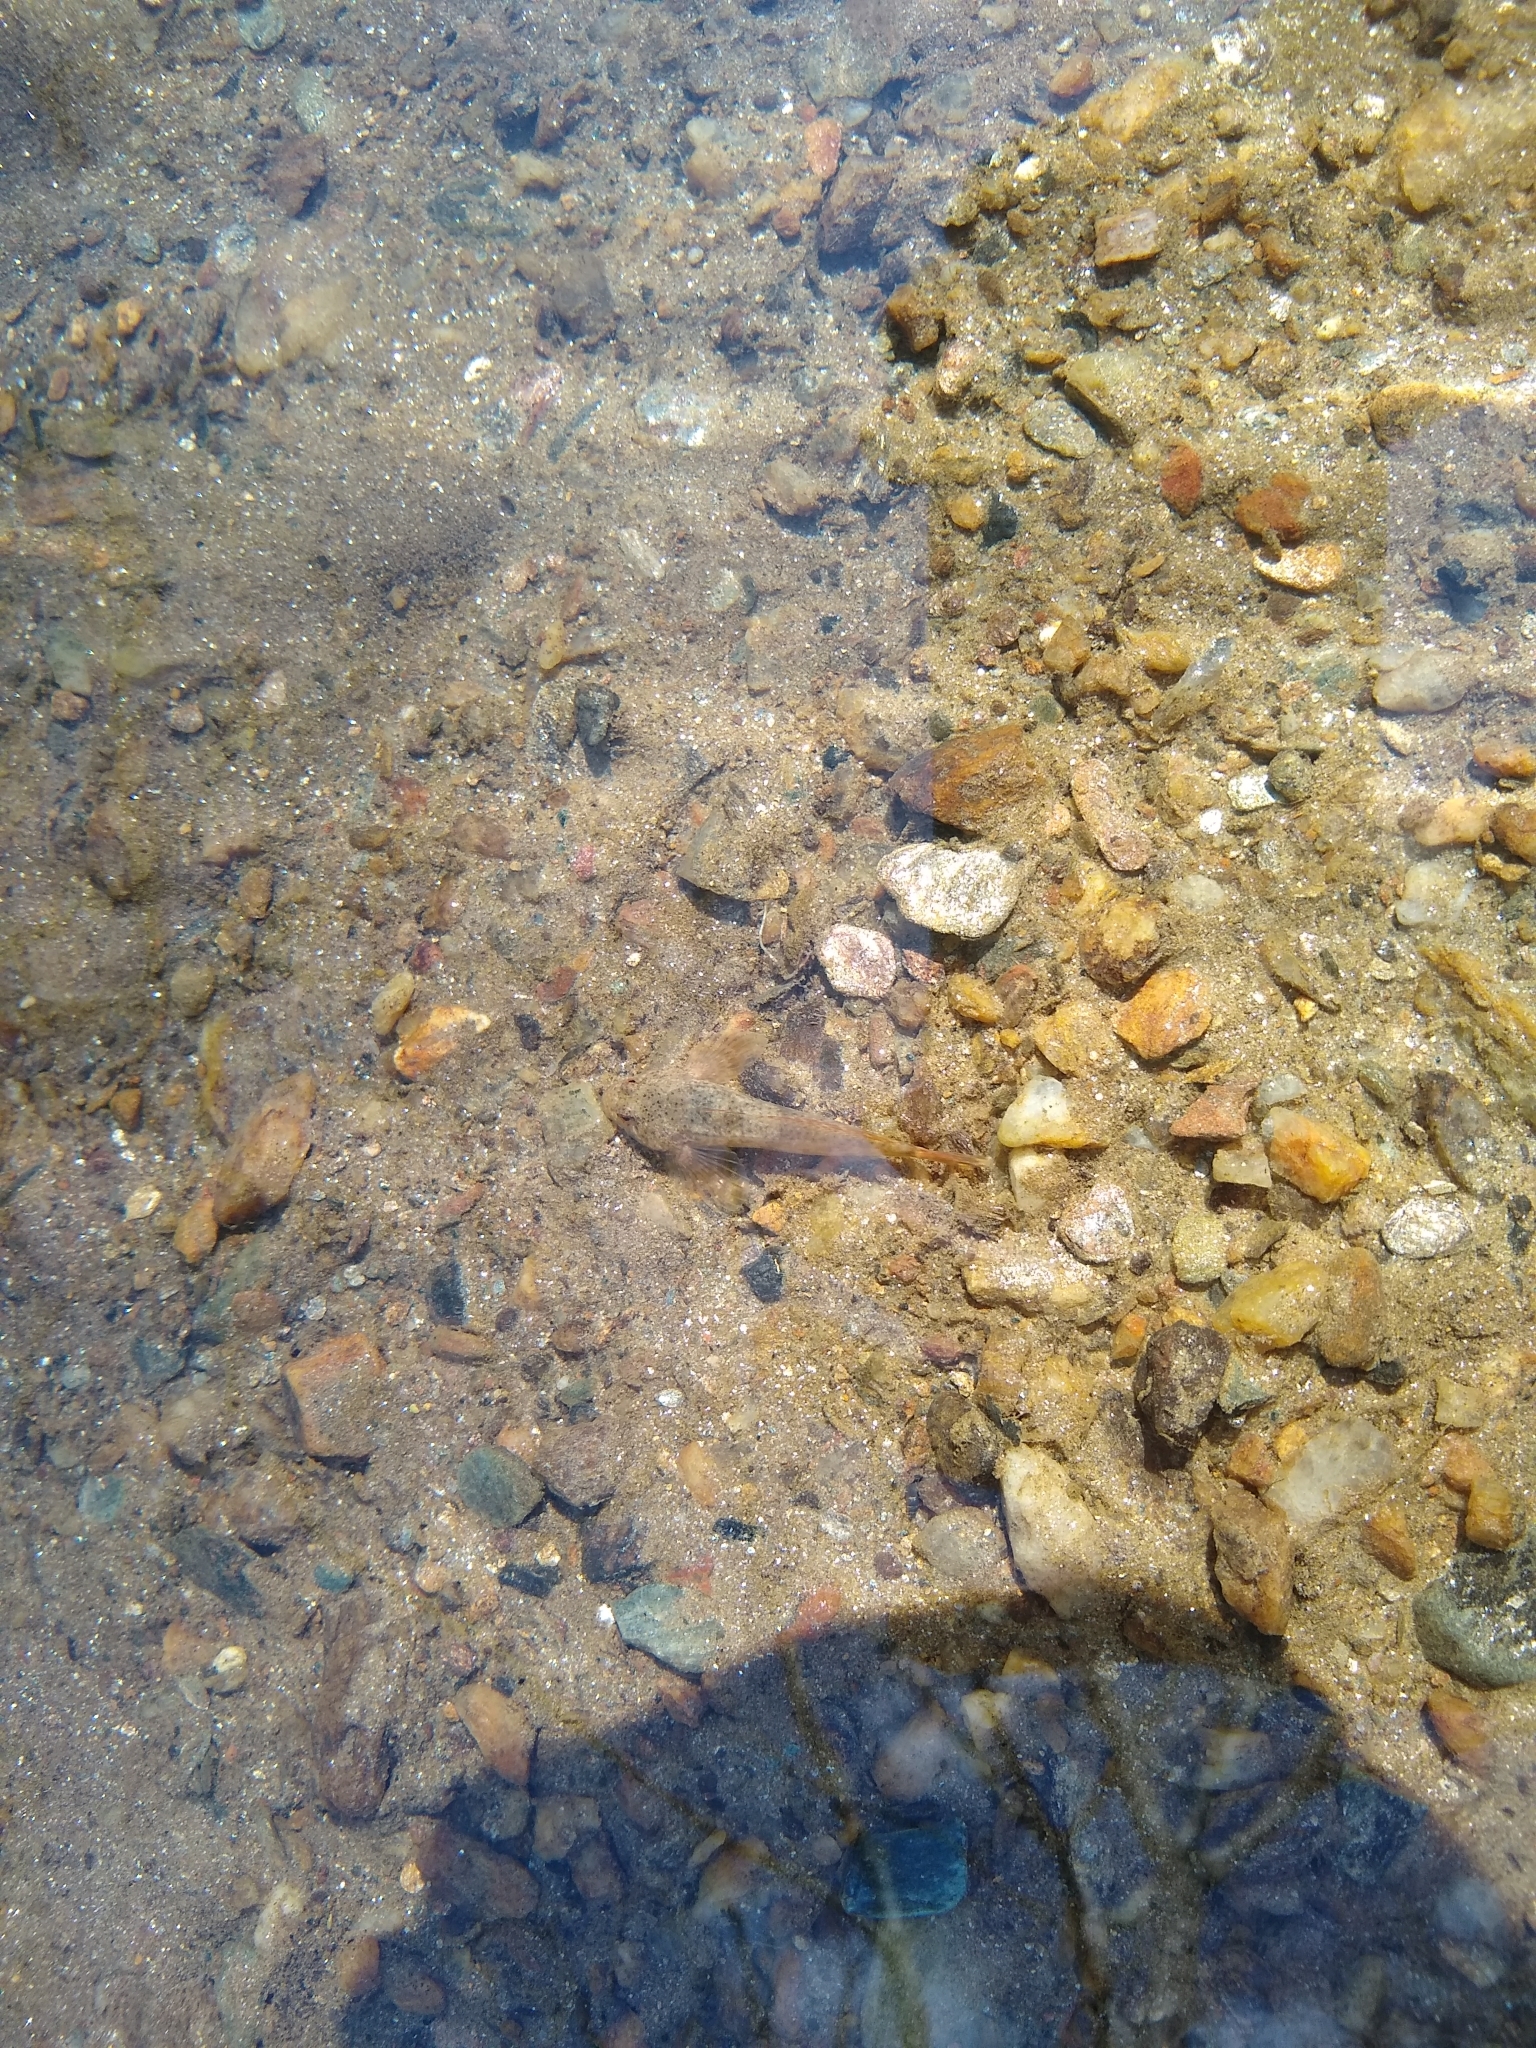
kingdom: Animalia
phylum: Chordata
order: Scorpaeniformes
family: Cottidae
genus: Cottus
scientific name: Cottus caeruleomentum
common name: Blue ridge sculpin
